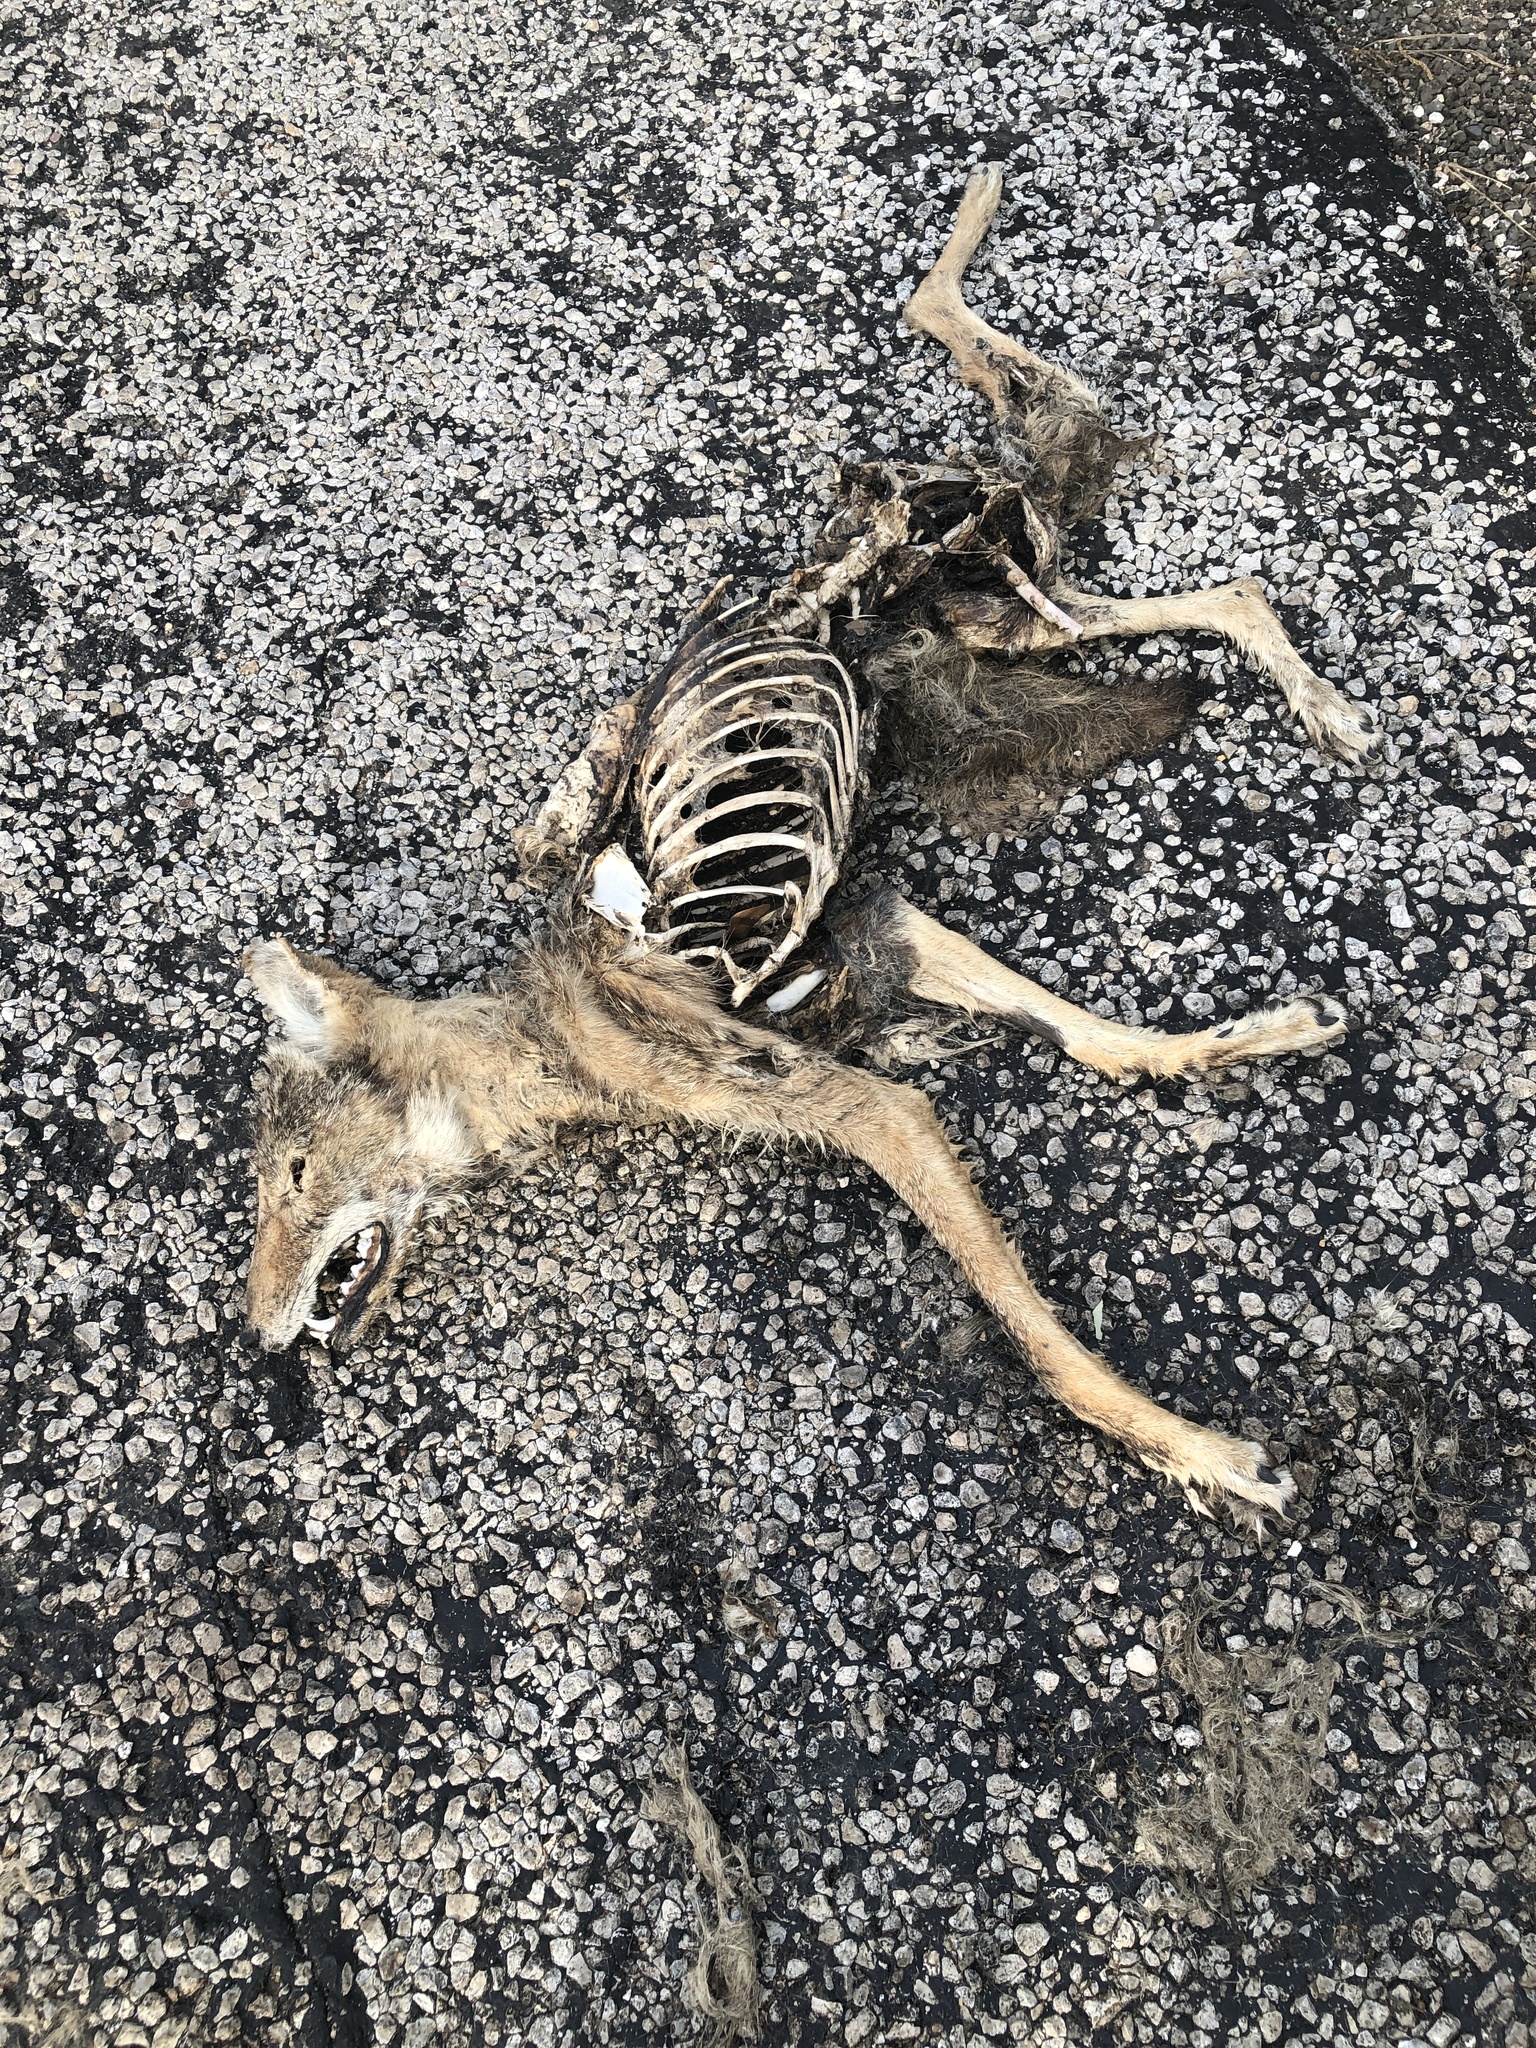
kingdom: Animalia
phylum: Chordata
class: Mammalia
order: Carnivora
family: Canidae
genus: Canis
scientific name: Canis latrans
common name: Coyote
